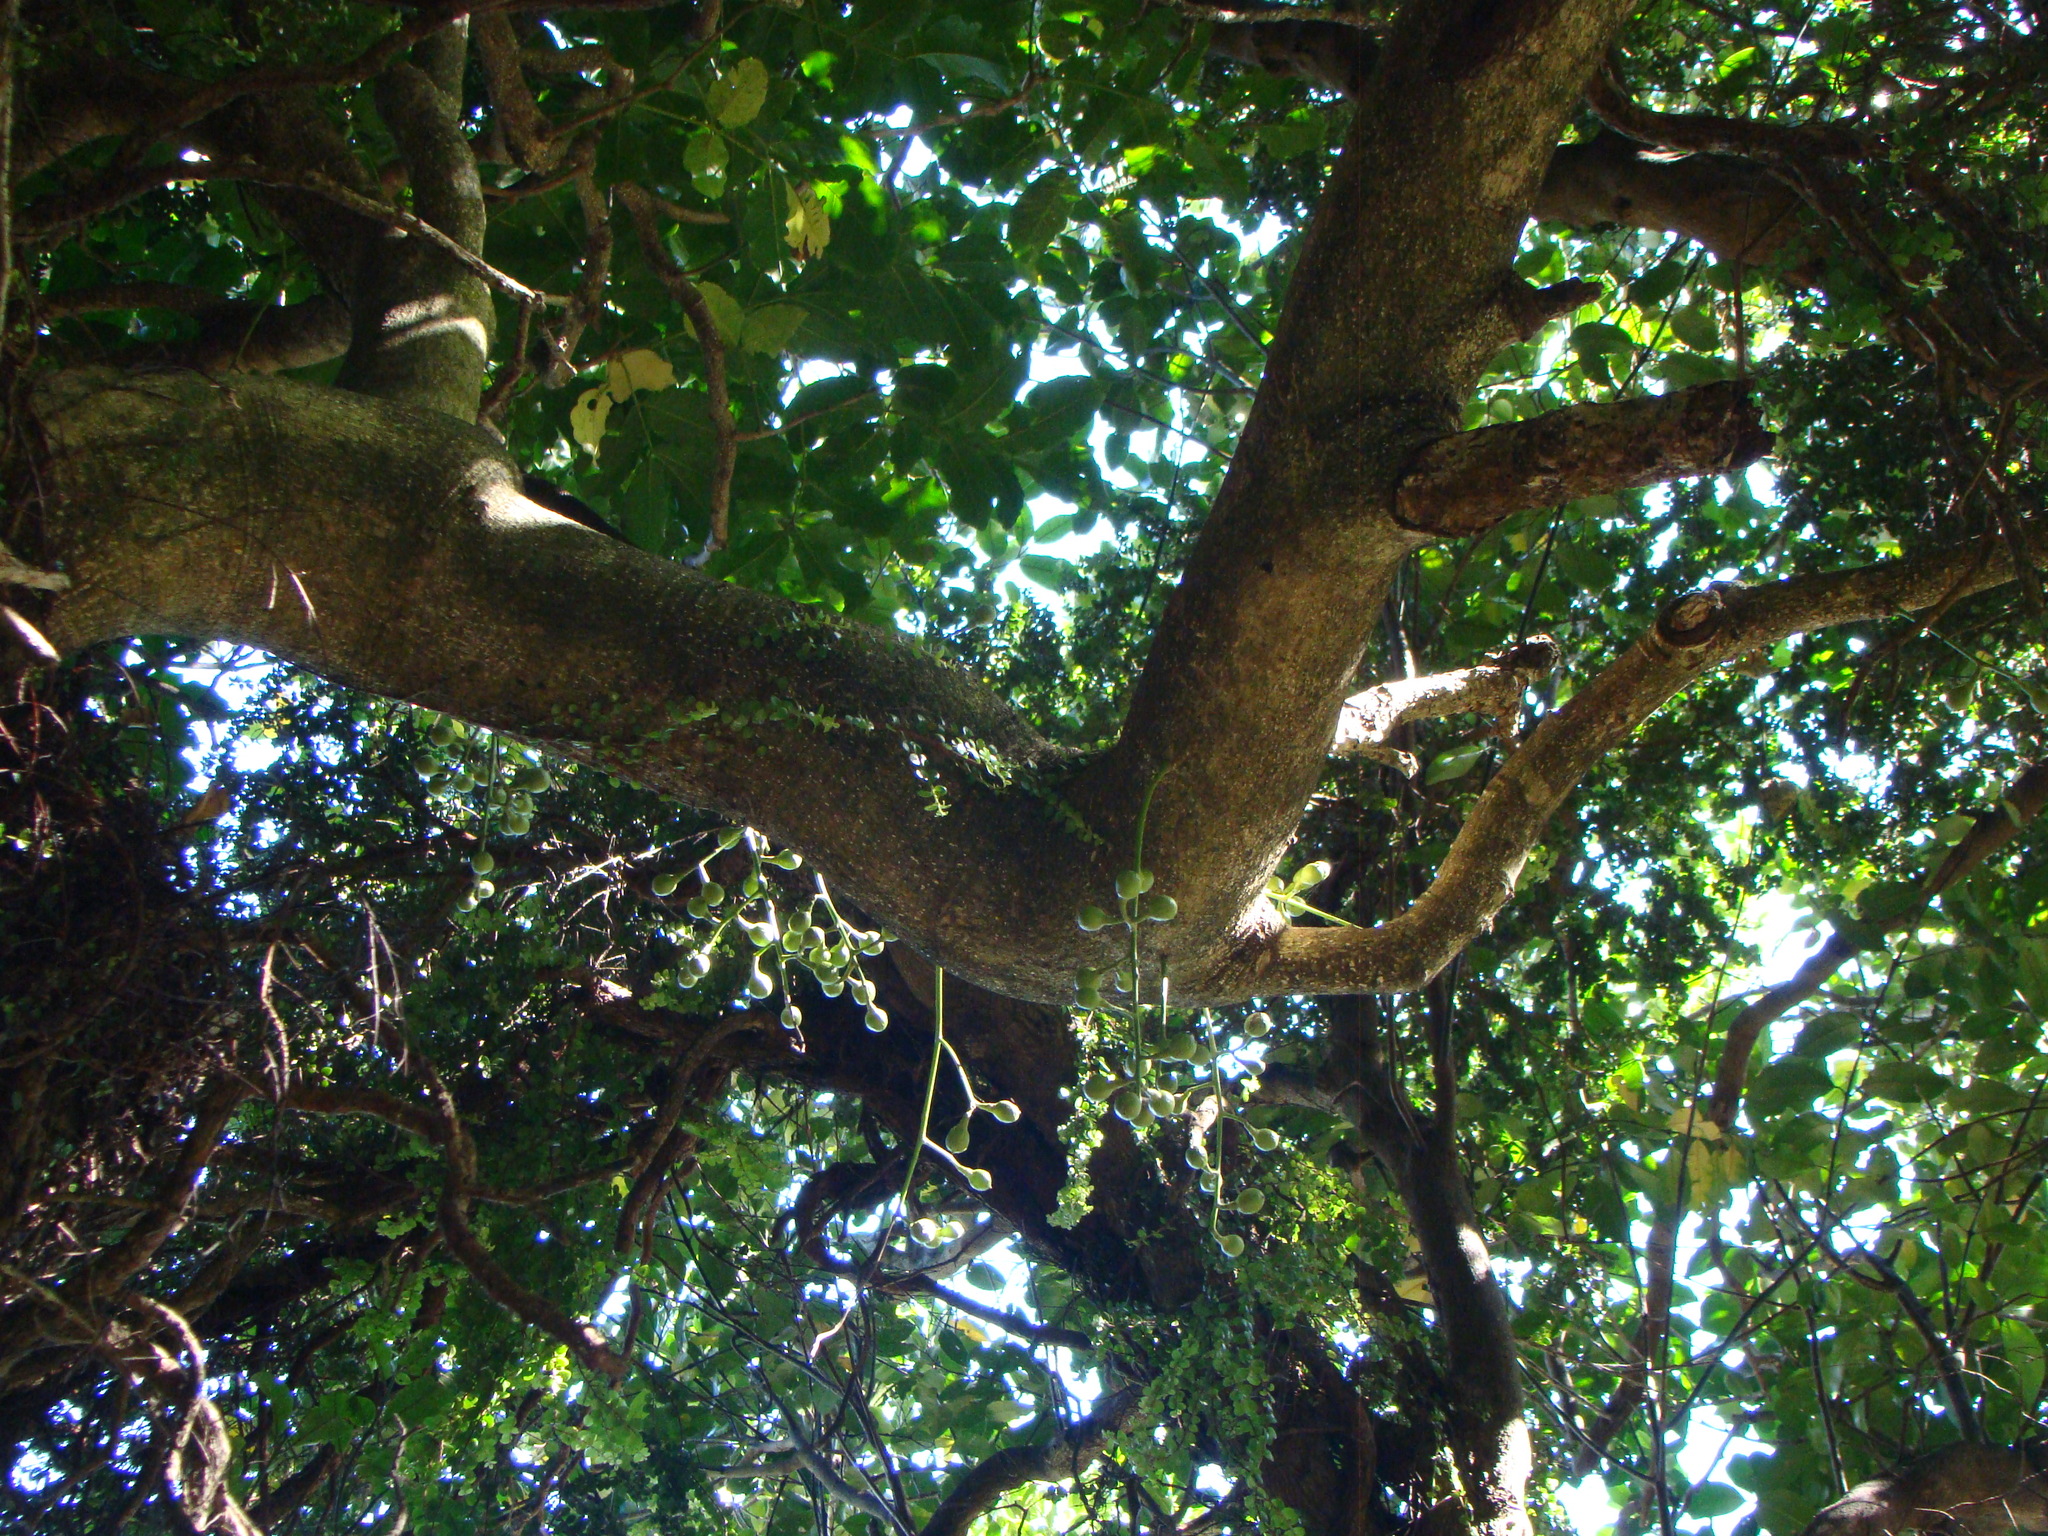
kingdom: Plantae
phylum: Tracheophyta
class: Magnoliopsida
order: Sapindales
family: Meliaceae
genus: Didymocheton
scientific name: Didymocheton spectabilis
